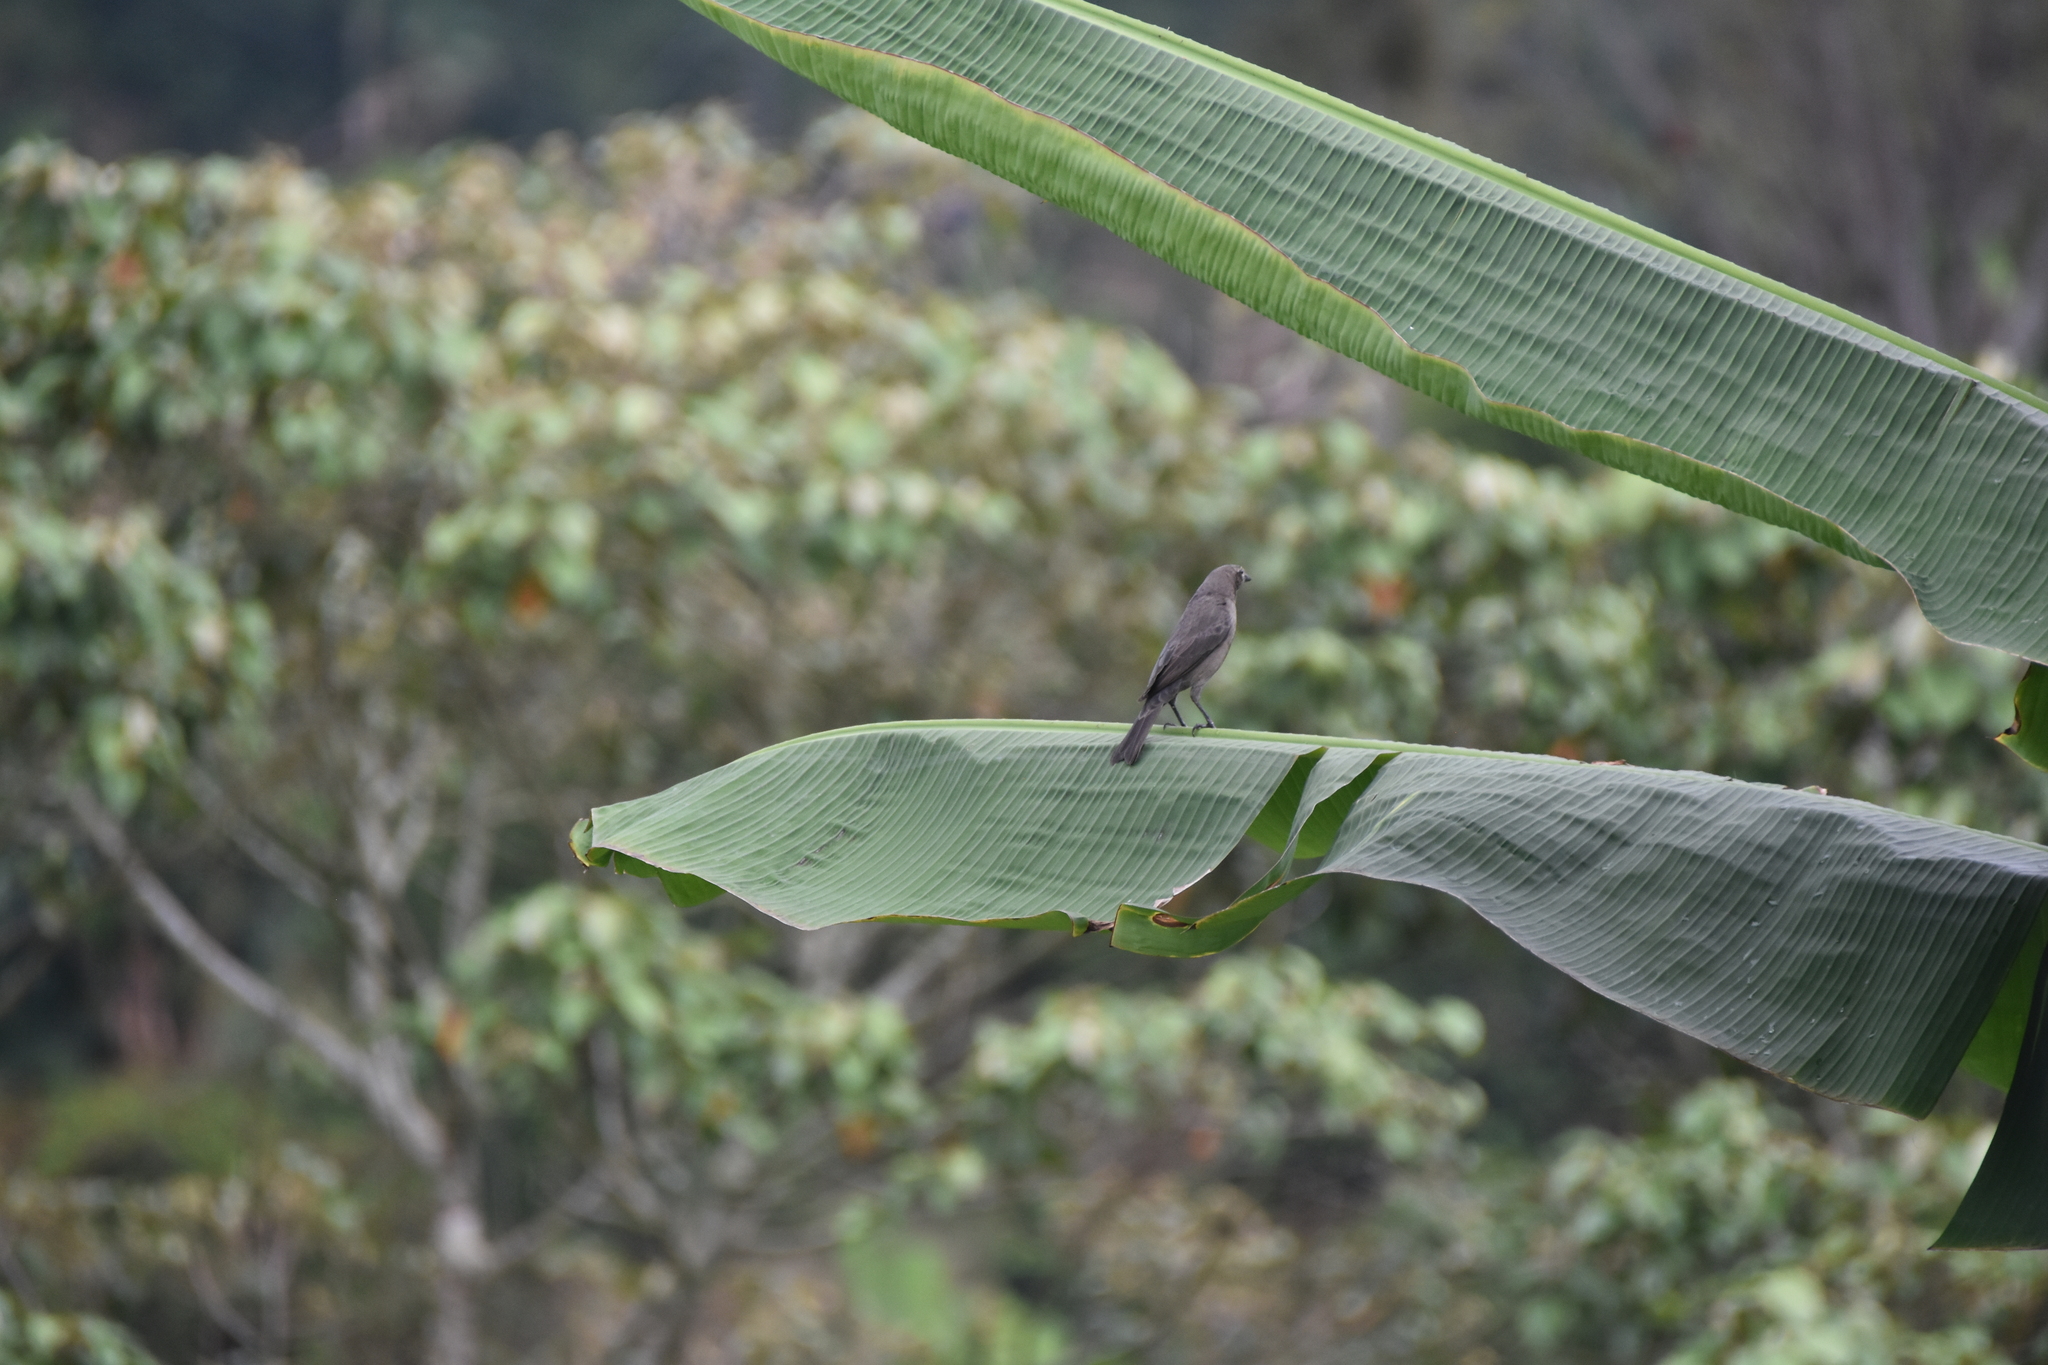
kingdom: Animalia
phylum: Chordata
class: Aves
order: Passeriformes
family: Icteridae
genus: Molothrus
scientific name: Molothrus bonariensis
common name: Shiny cowbird
